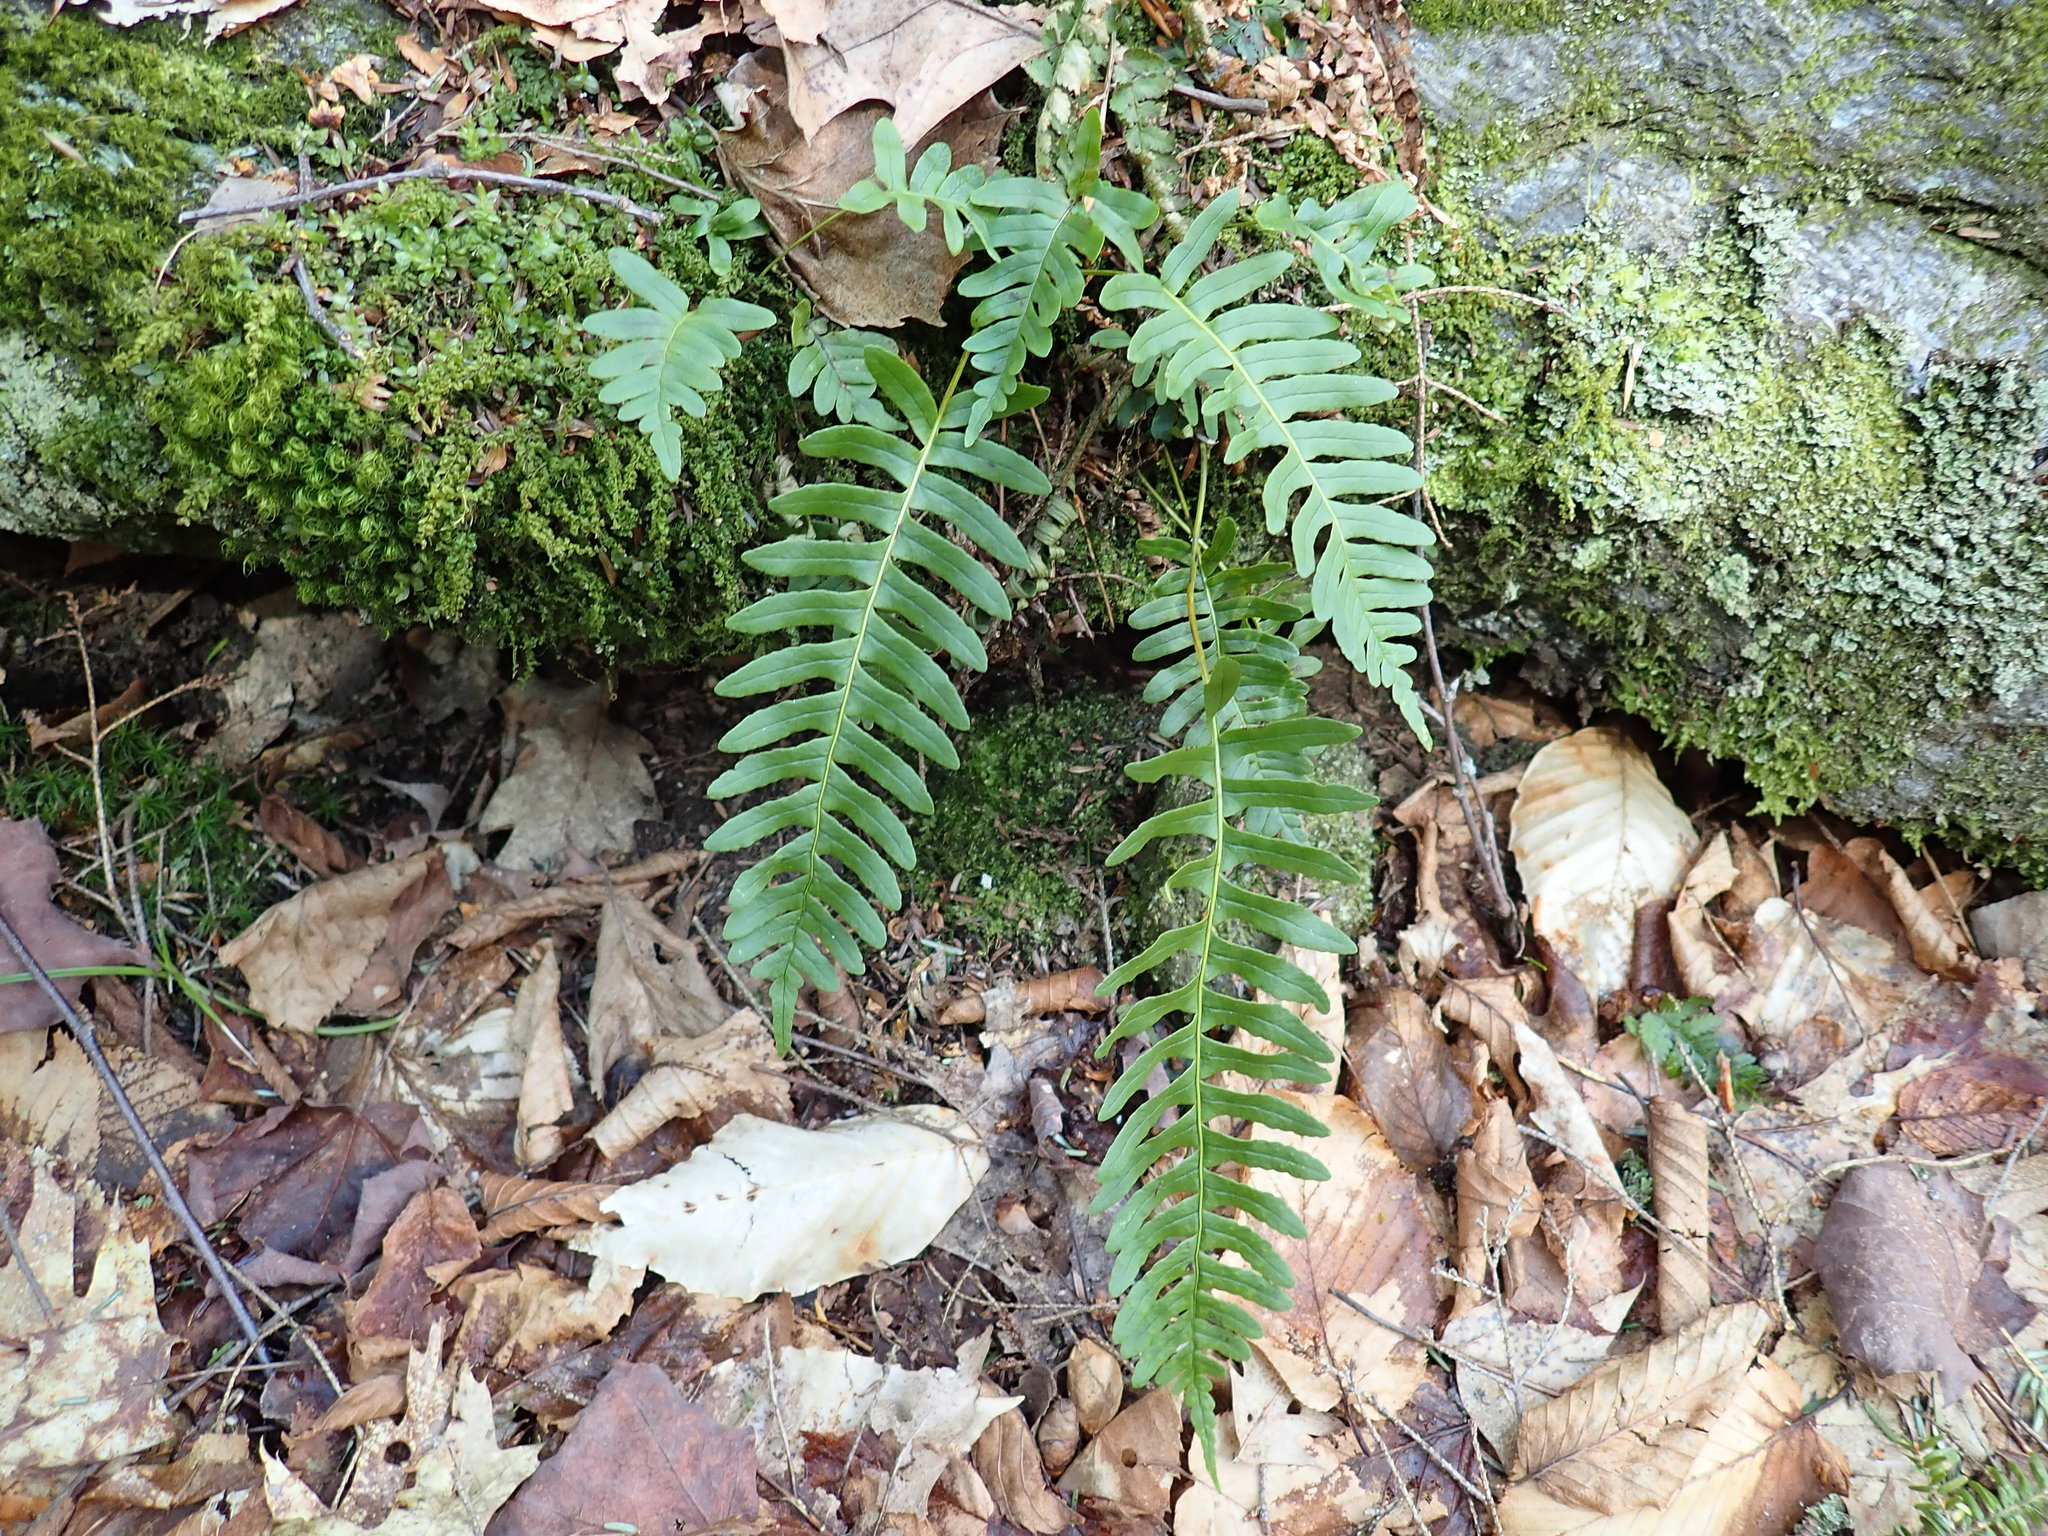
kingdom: Plantae
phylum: Tracheophyta
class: Polypodiopsida
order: Polypodiales
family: Polypodiaceae
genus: Polypodium
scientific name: Polypodium virginianum
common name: American wall fern
